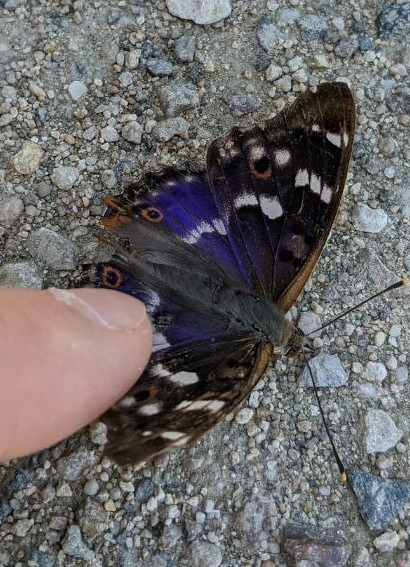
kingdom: Animalia
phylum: Arthropoda
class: Insecta
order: Lepidoptera
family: Nymphalidae
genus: Apatura
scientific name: Apatura ilia
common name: Lesser purple emperor
